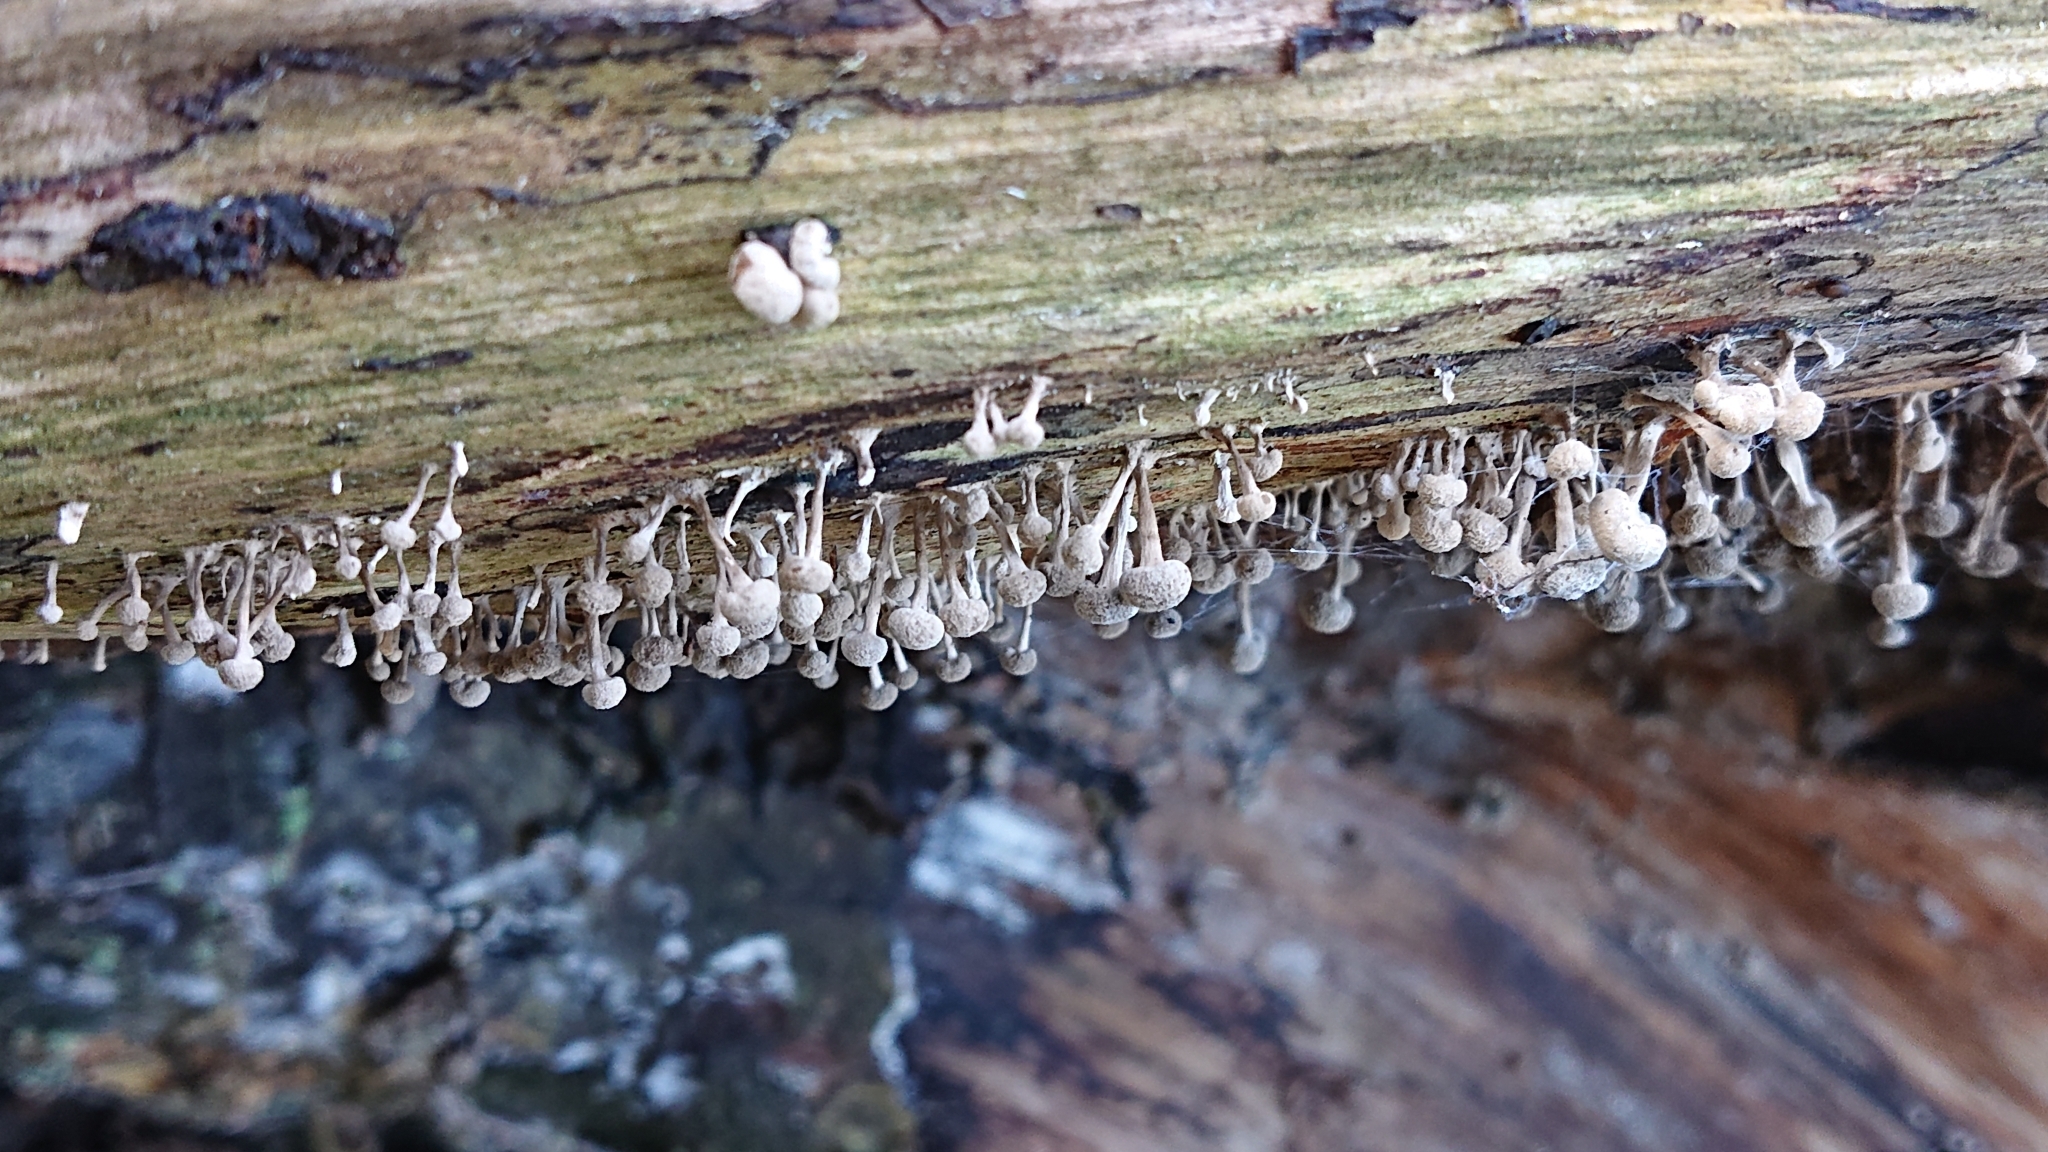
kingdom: Fungi
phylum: Basidiomycota
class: Atractiellomycetes
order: Atractiellales
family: Phleogenaceae
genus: Phleogena
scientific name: Phleogena faginea
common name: Fenugreek stalkball
